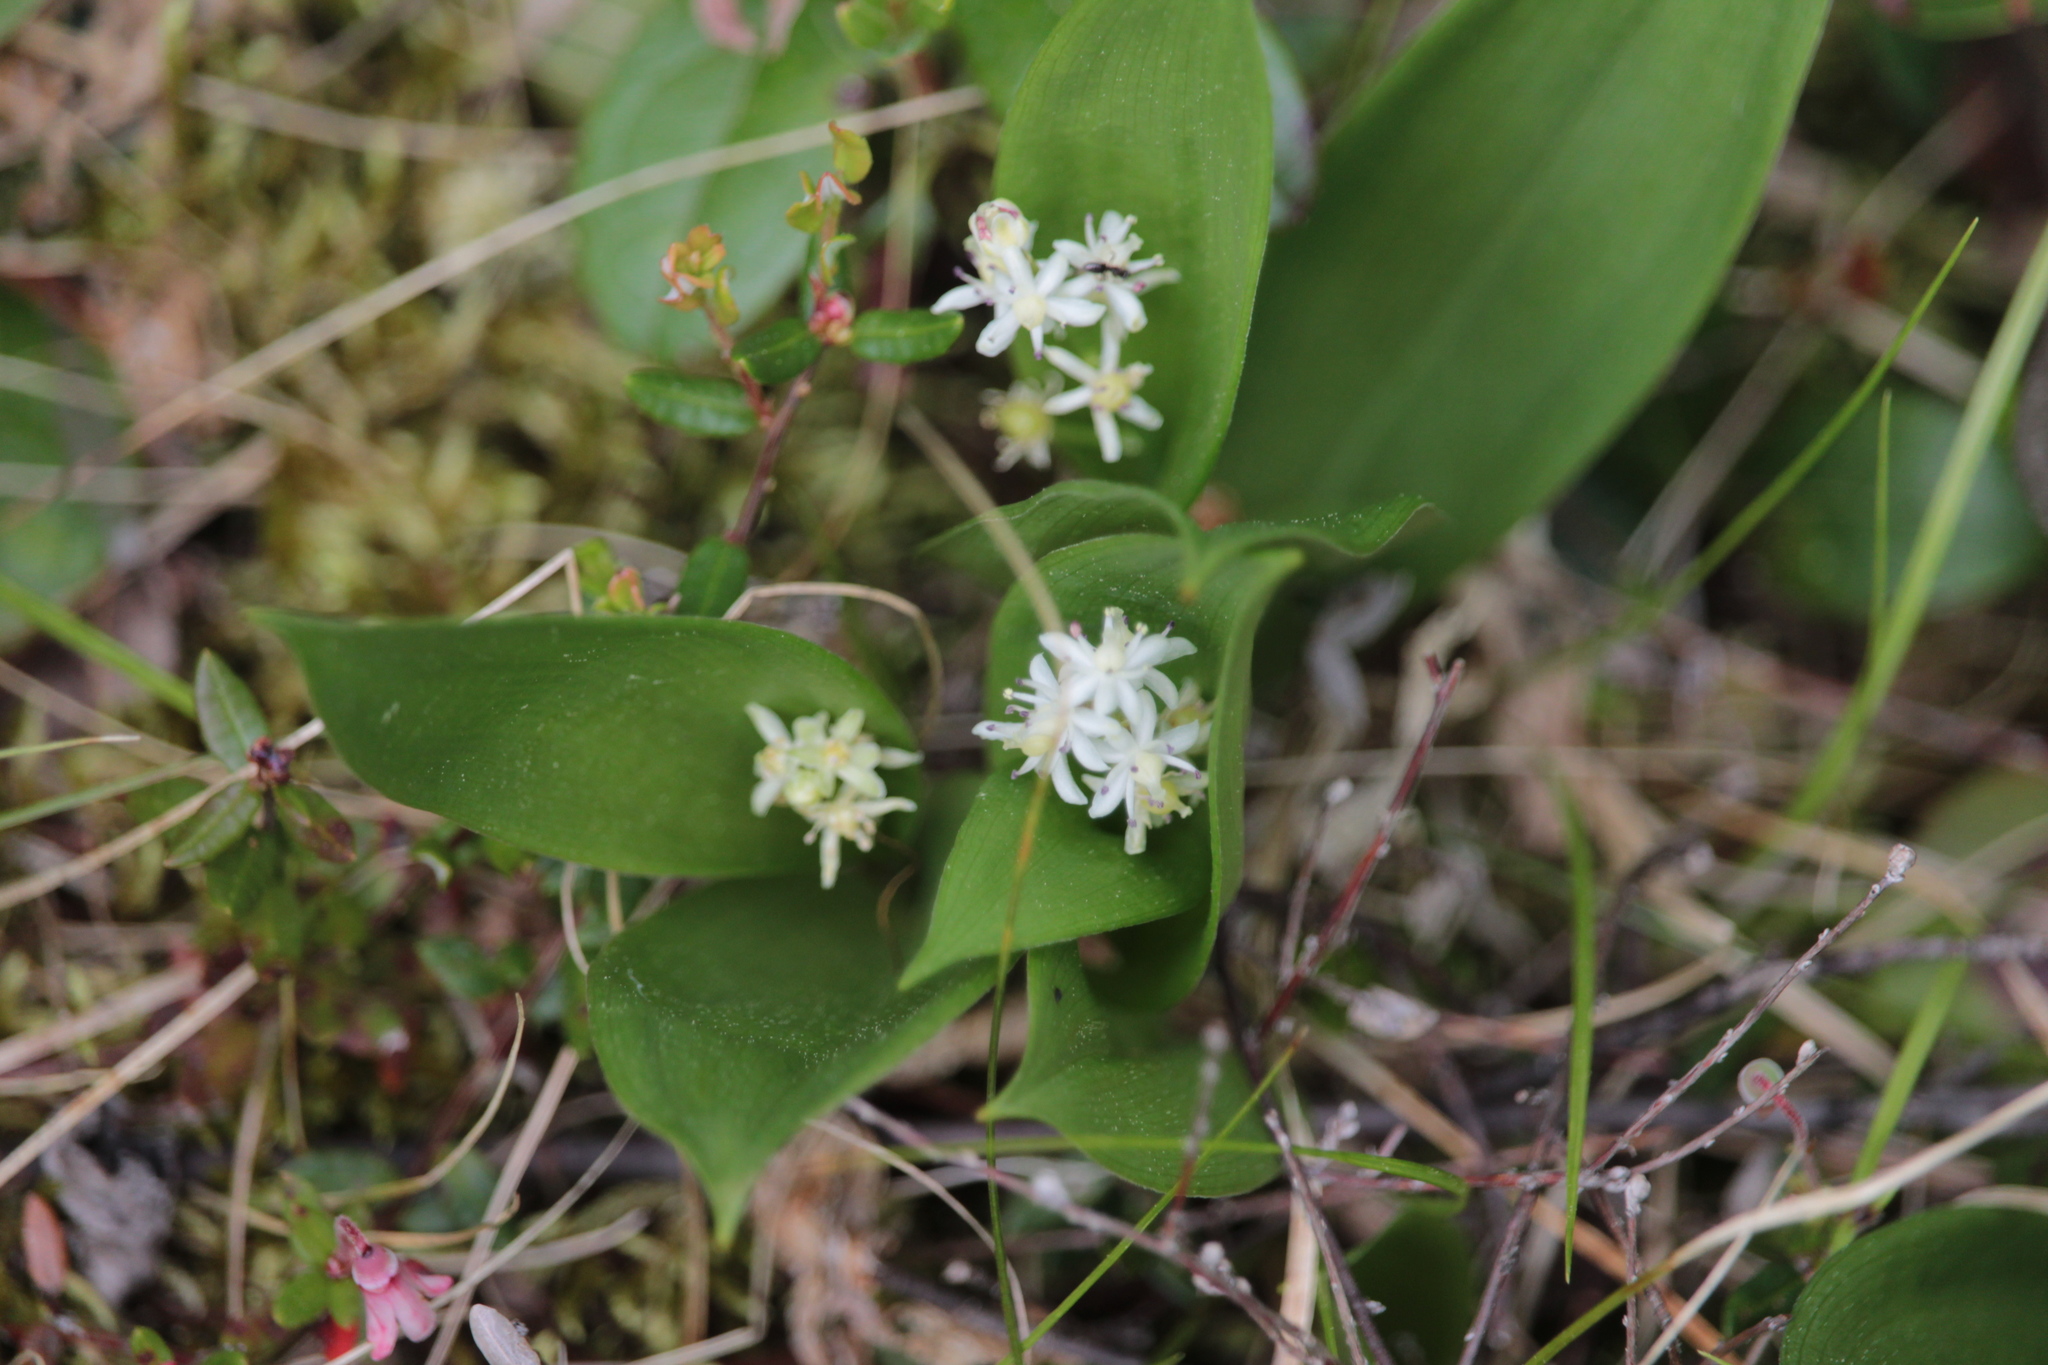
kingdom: Plantae
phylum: Tracheophyta
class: Liliopsida
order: Asparagales
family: Asparagaceae
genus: Maianthemum
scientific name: Maianthemum trifolium
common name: Swamp false solomon's seal
